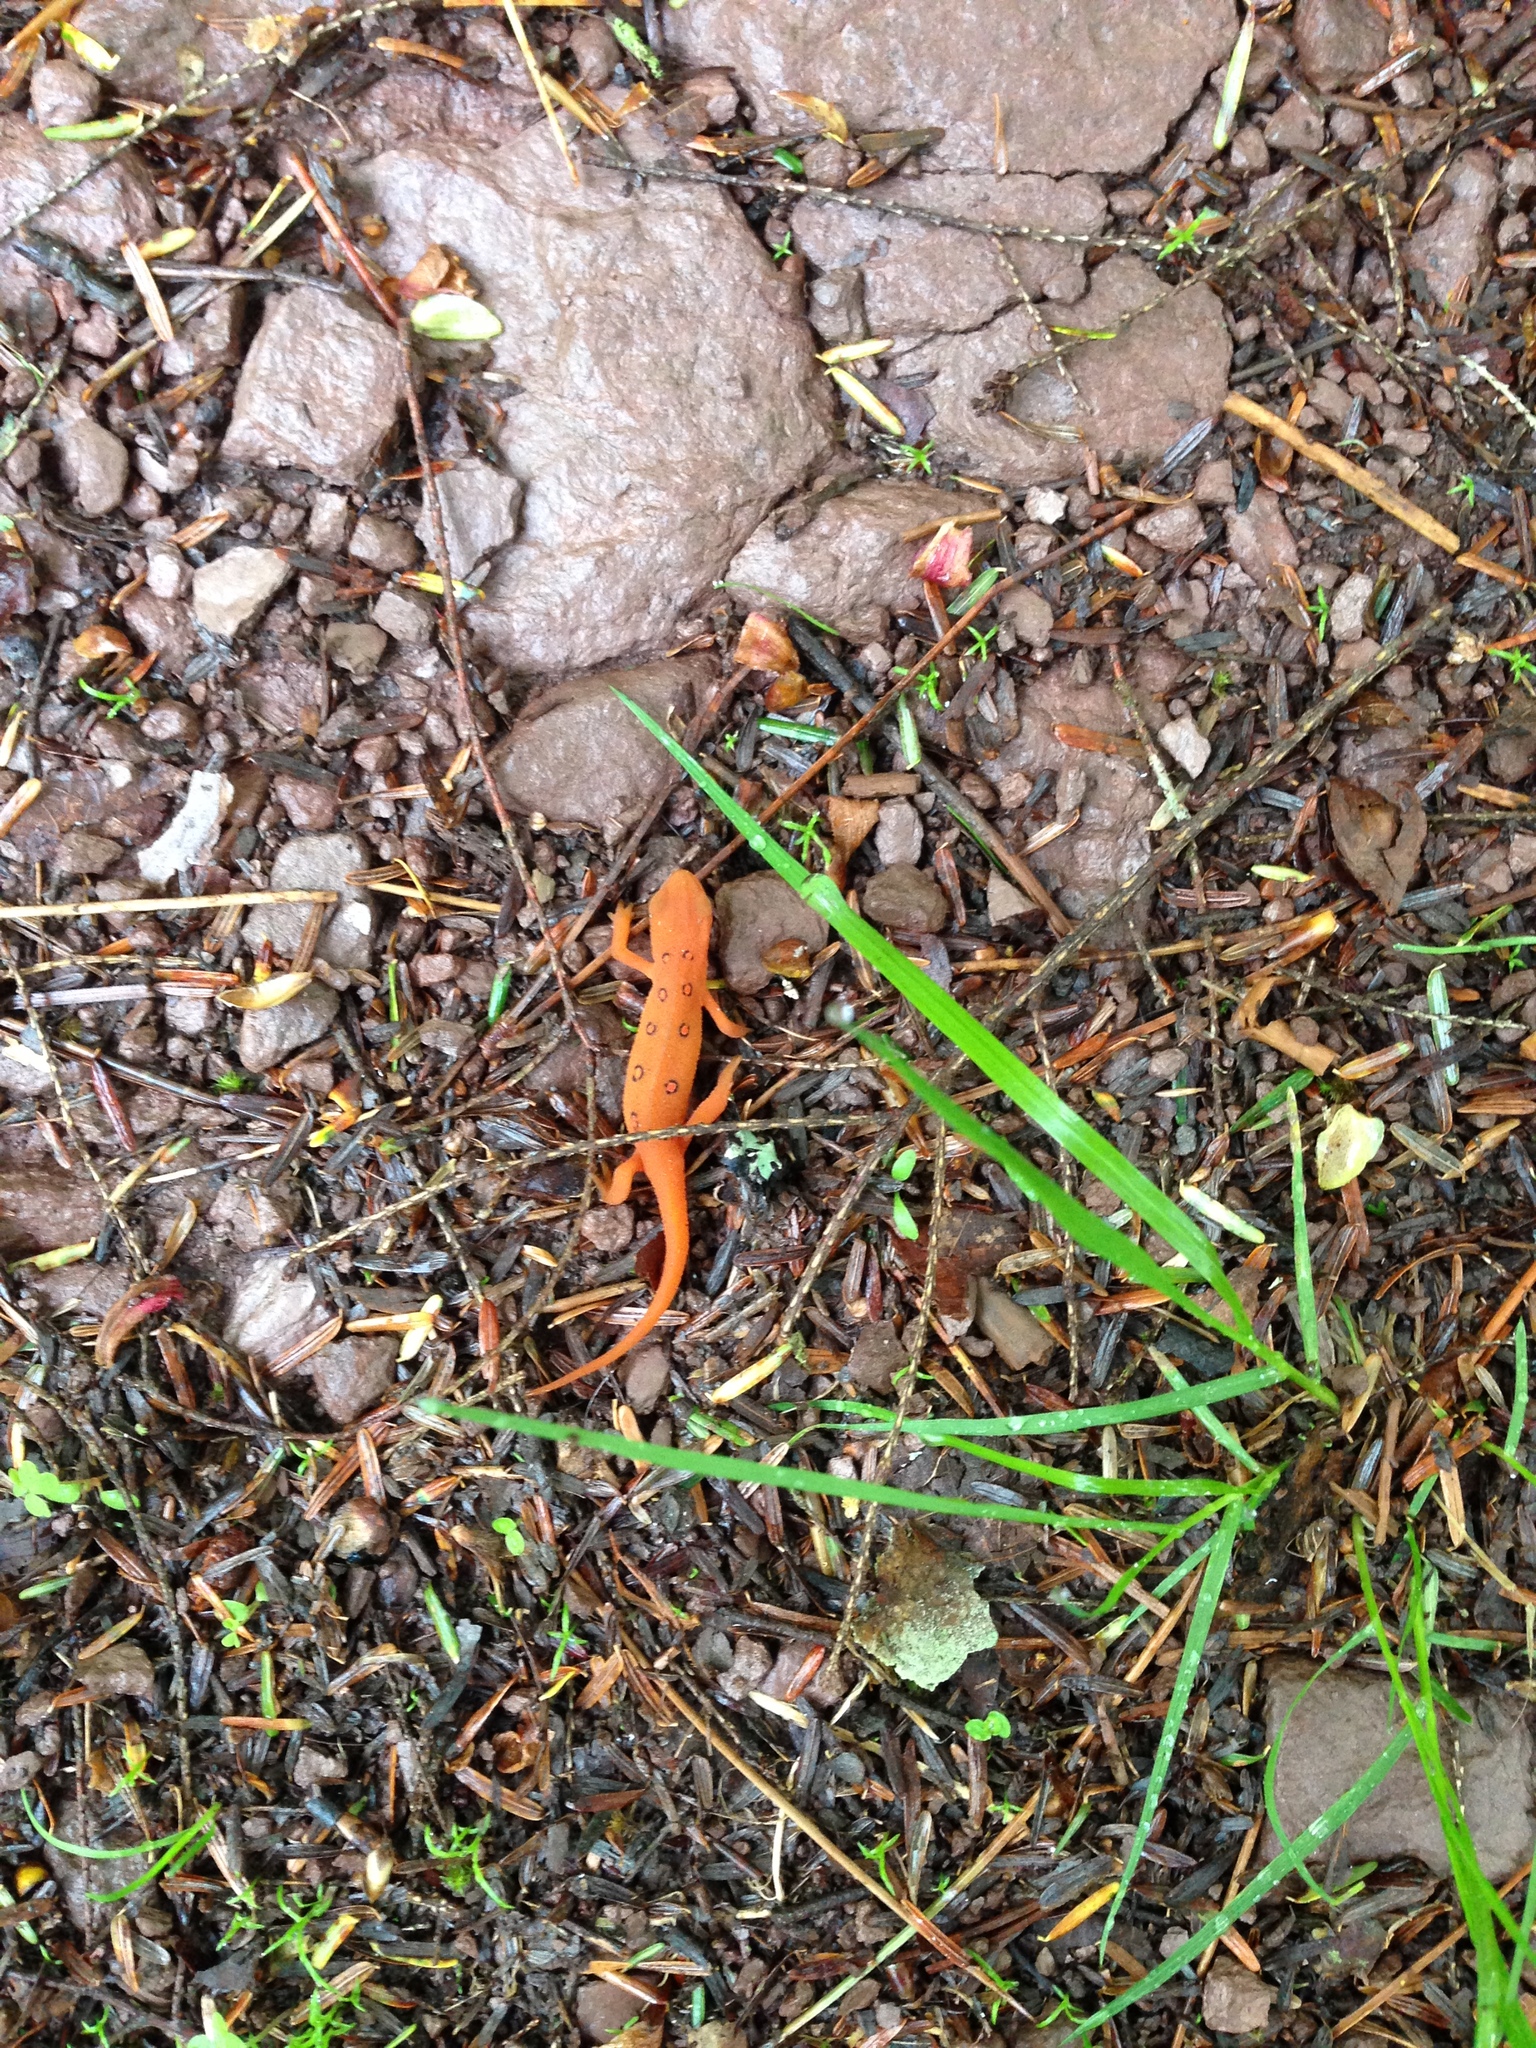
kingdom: Animalia
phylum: Chordata
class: Amphibia
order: Caudata
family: Salamandridae
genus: Notophthalmus
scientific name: Notophthalmus viridescens
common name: Eastern newt
